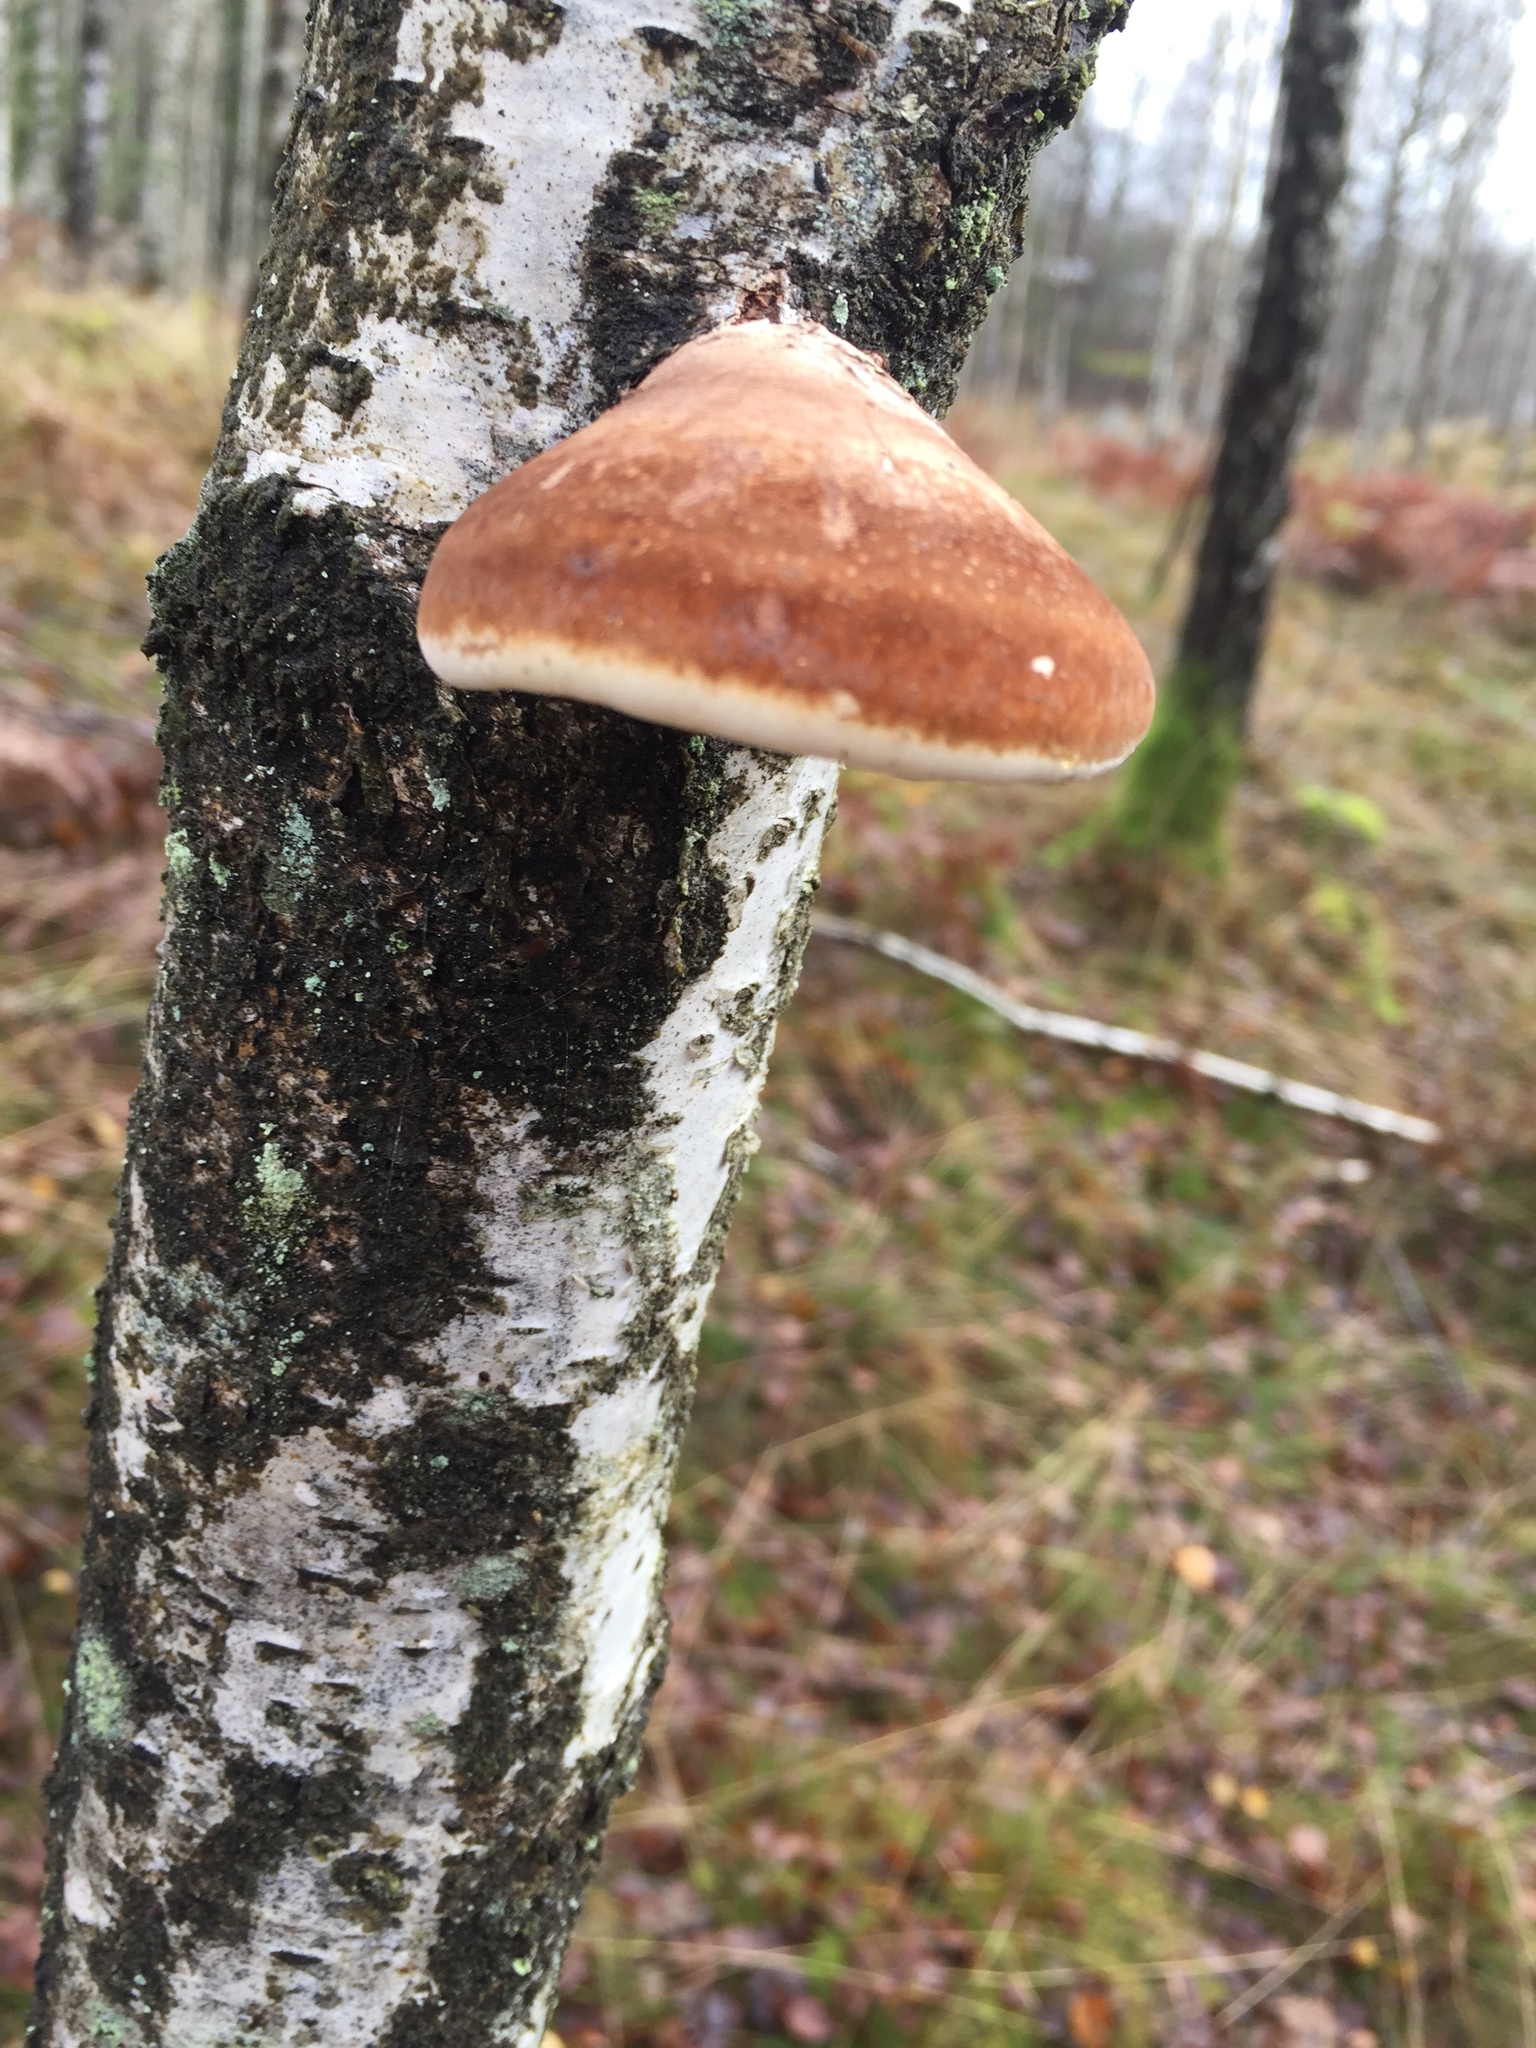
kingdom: Fungi
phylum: Basidiomycota
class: Agaricomycetes
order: Polyporales
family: Fomitopsidaceae
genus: Fomitopsis
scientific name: Fomitopsis betulina
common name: Birch polypore
